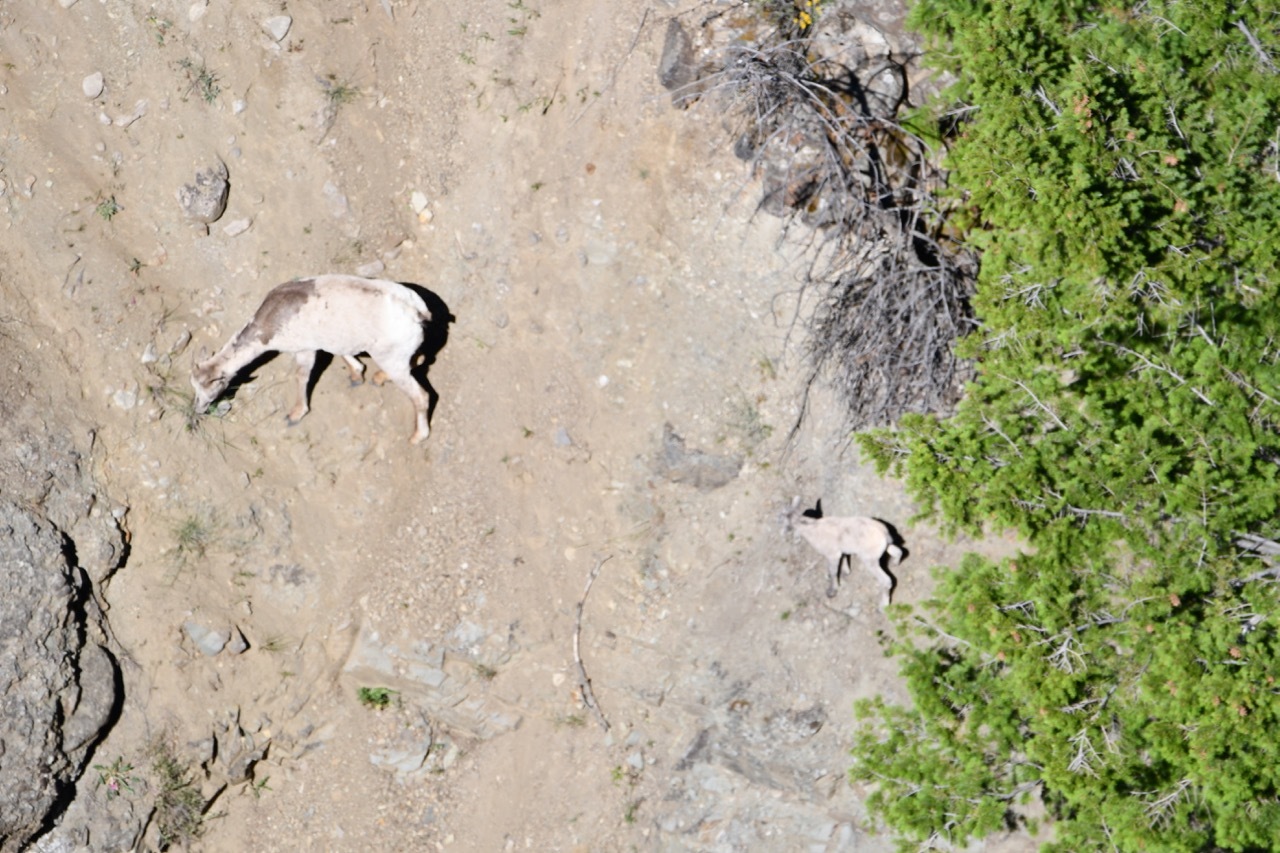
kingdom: Animalia
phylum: Chordata
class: Mammalia
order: Artiodactyla
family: Bovidae
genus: Ovis
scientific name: Ovis canadensis
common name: Bighorn sheep
